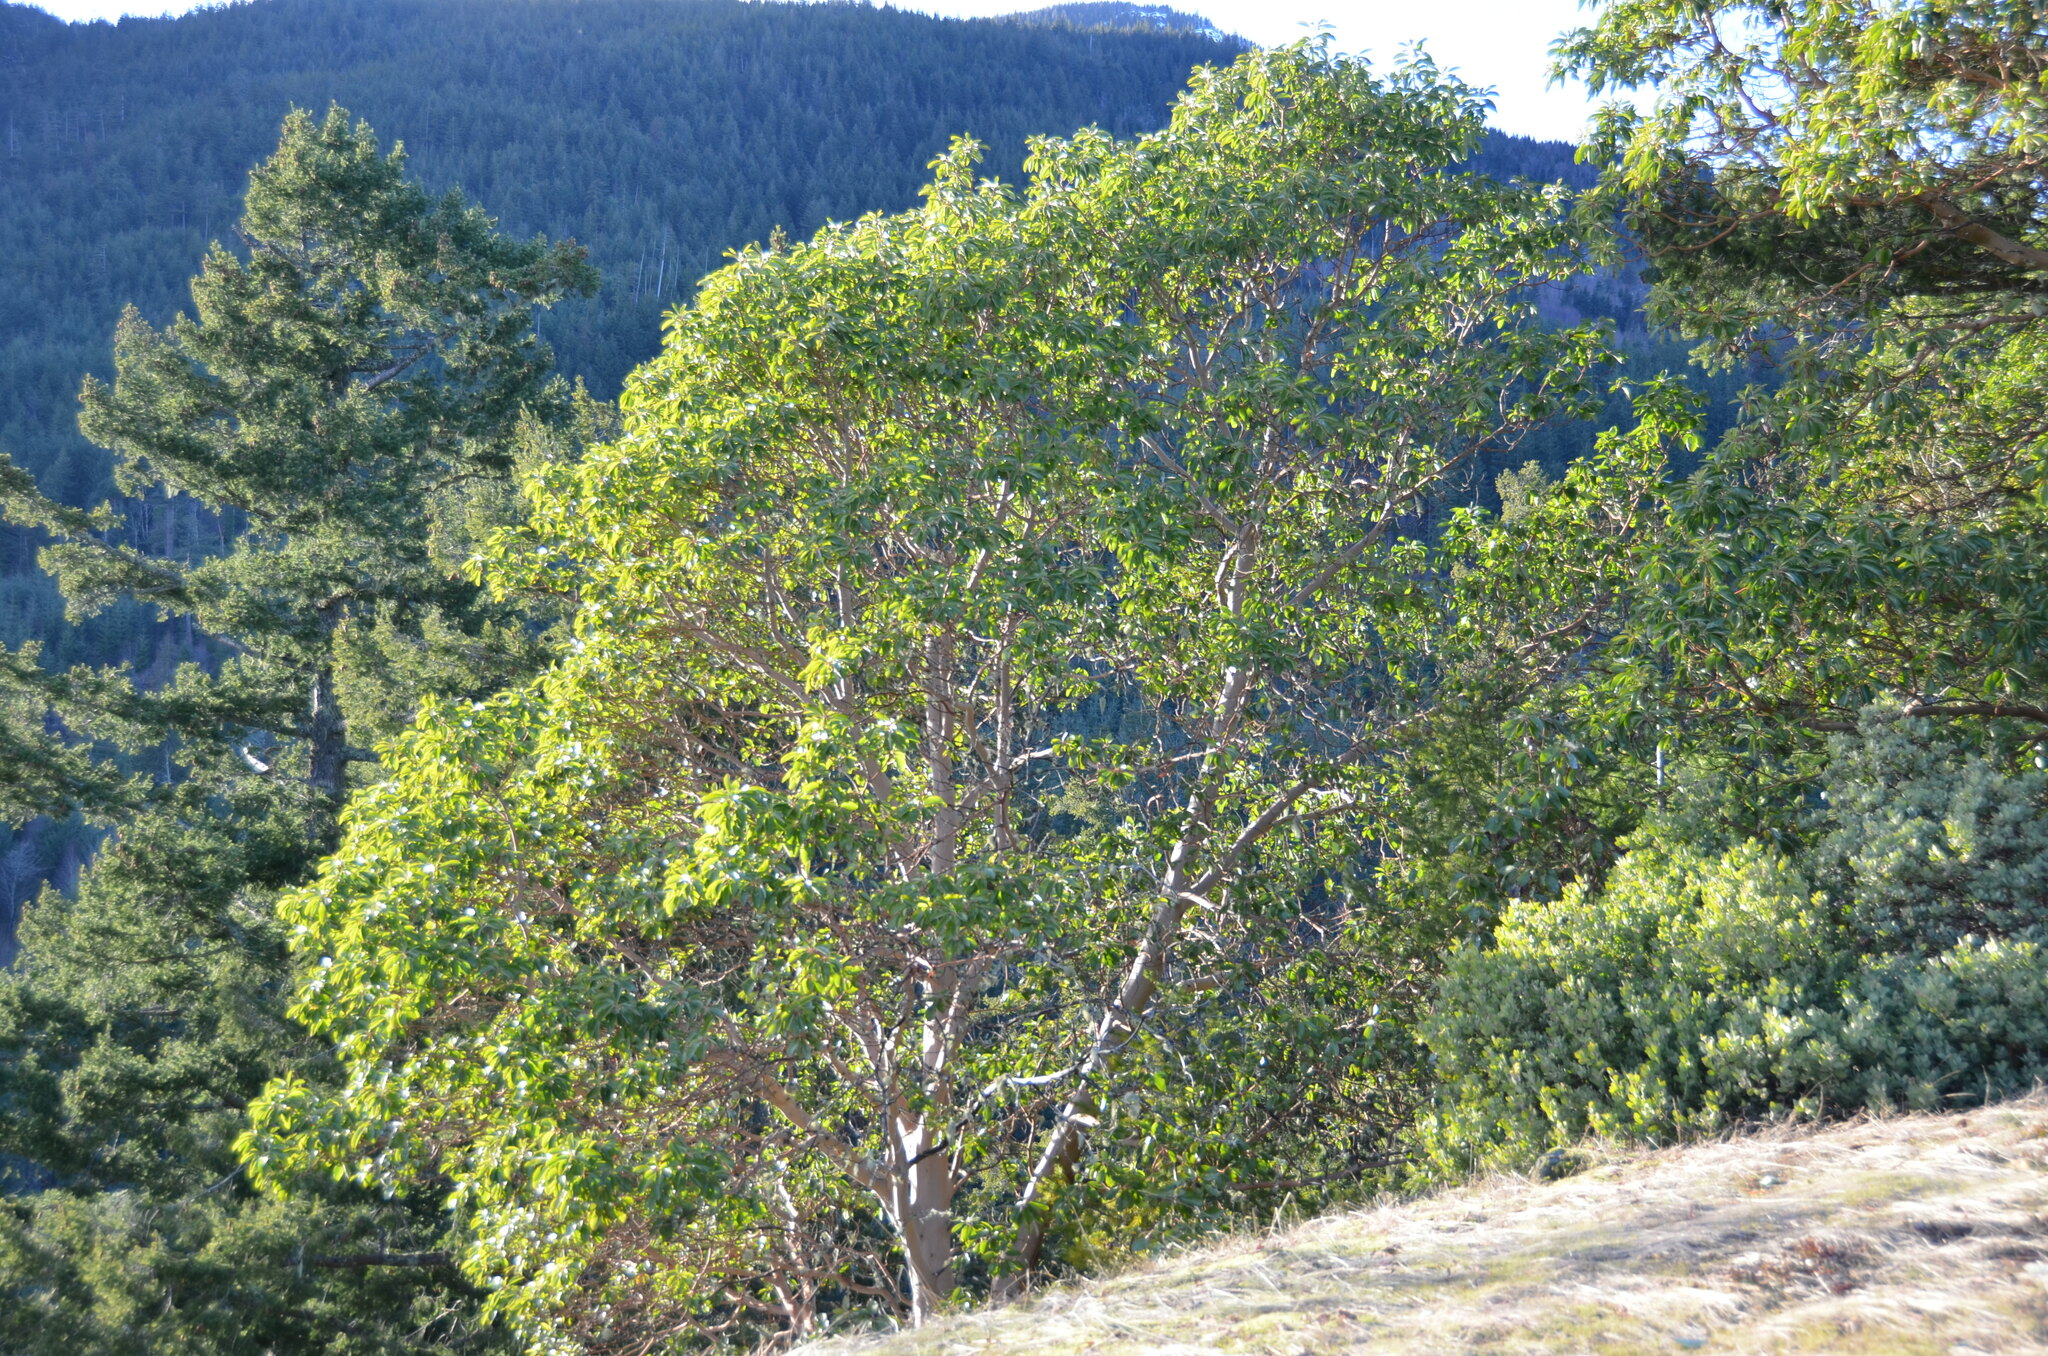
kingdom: Plantae
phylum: Tracheophyta
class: Magnoliopsida
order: Ericales
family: Ericaceae
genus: Arbutus
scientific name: Arbutus menziesii
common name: Pacific madrone
